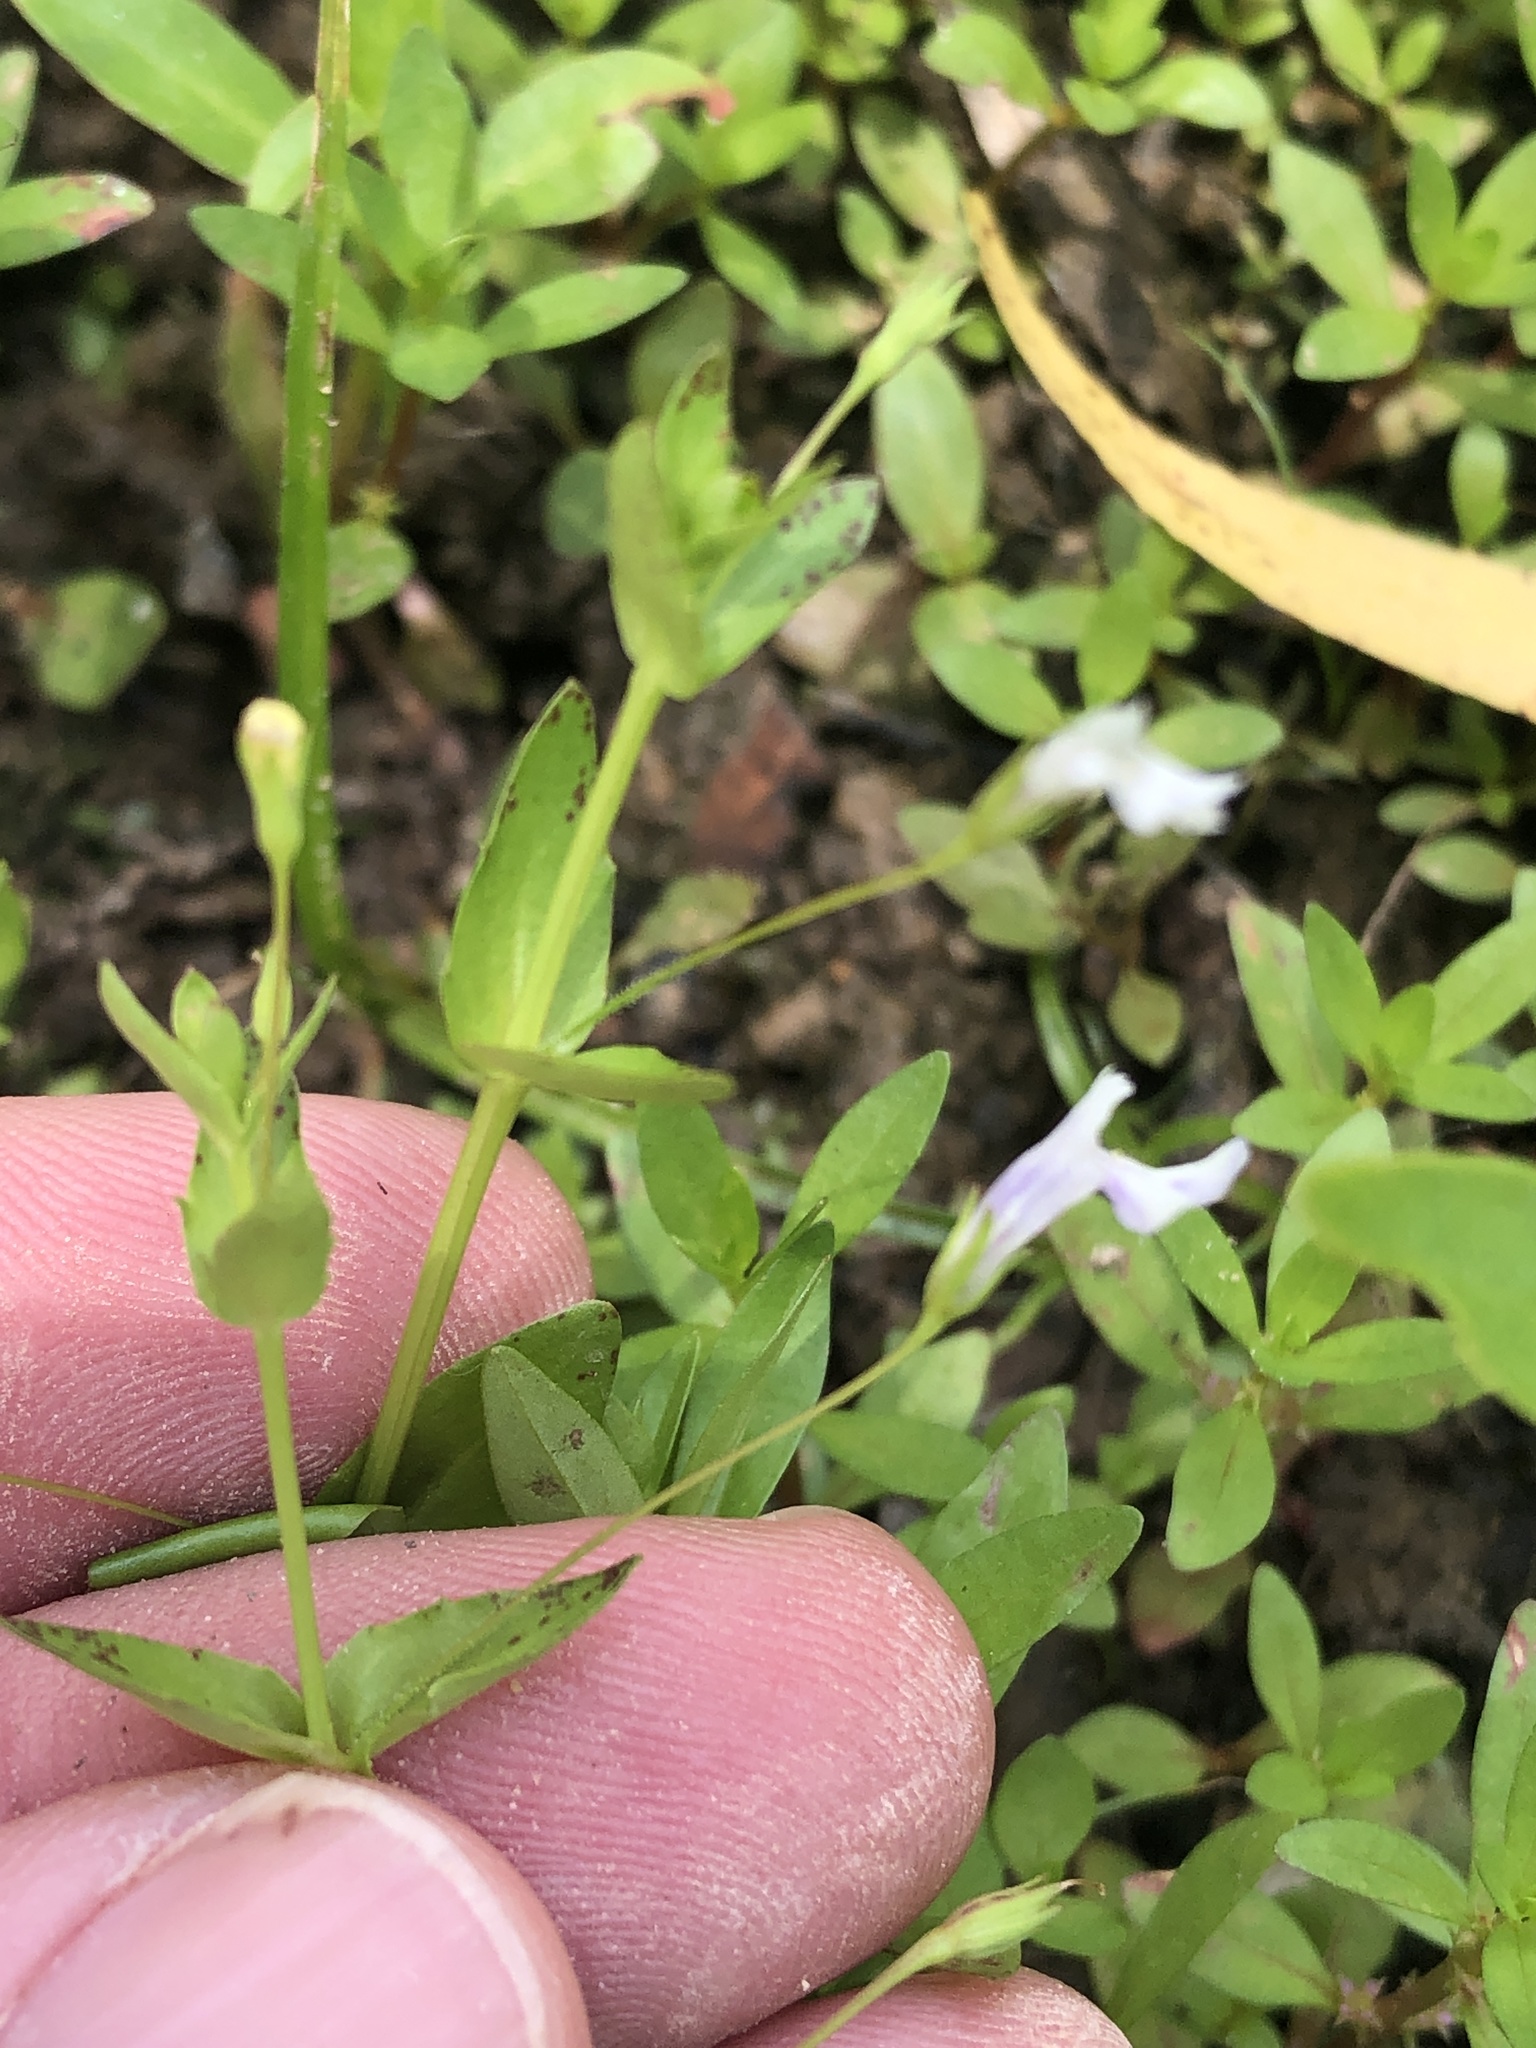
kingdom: Plantae
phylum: Tracheophyta
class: Magnoliopsida
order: Lamiales
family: Linderniaceae
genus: Lindernia
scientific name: Lindernia dubia
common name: Annual false pimpernel
